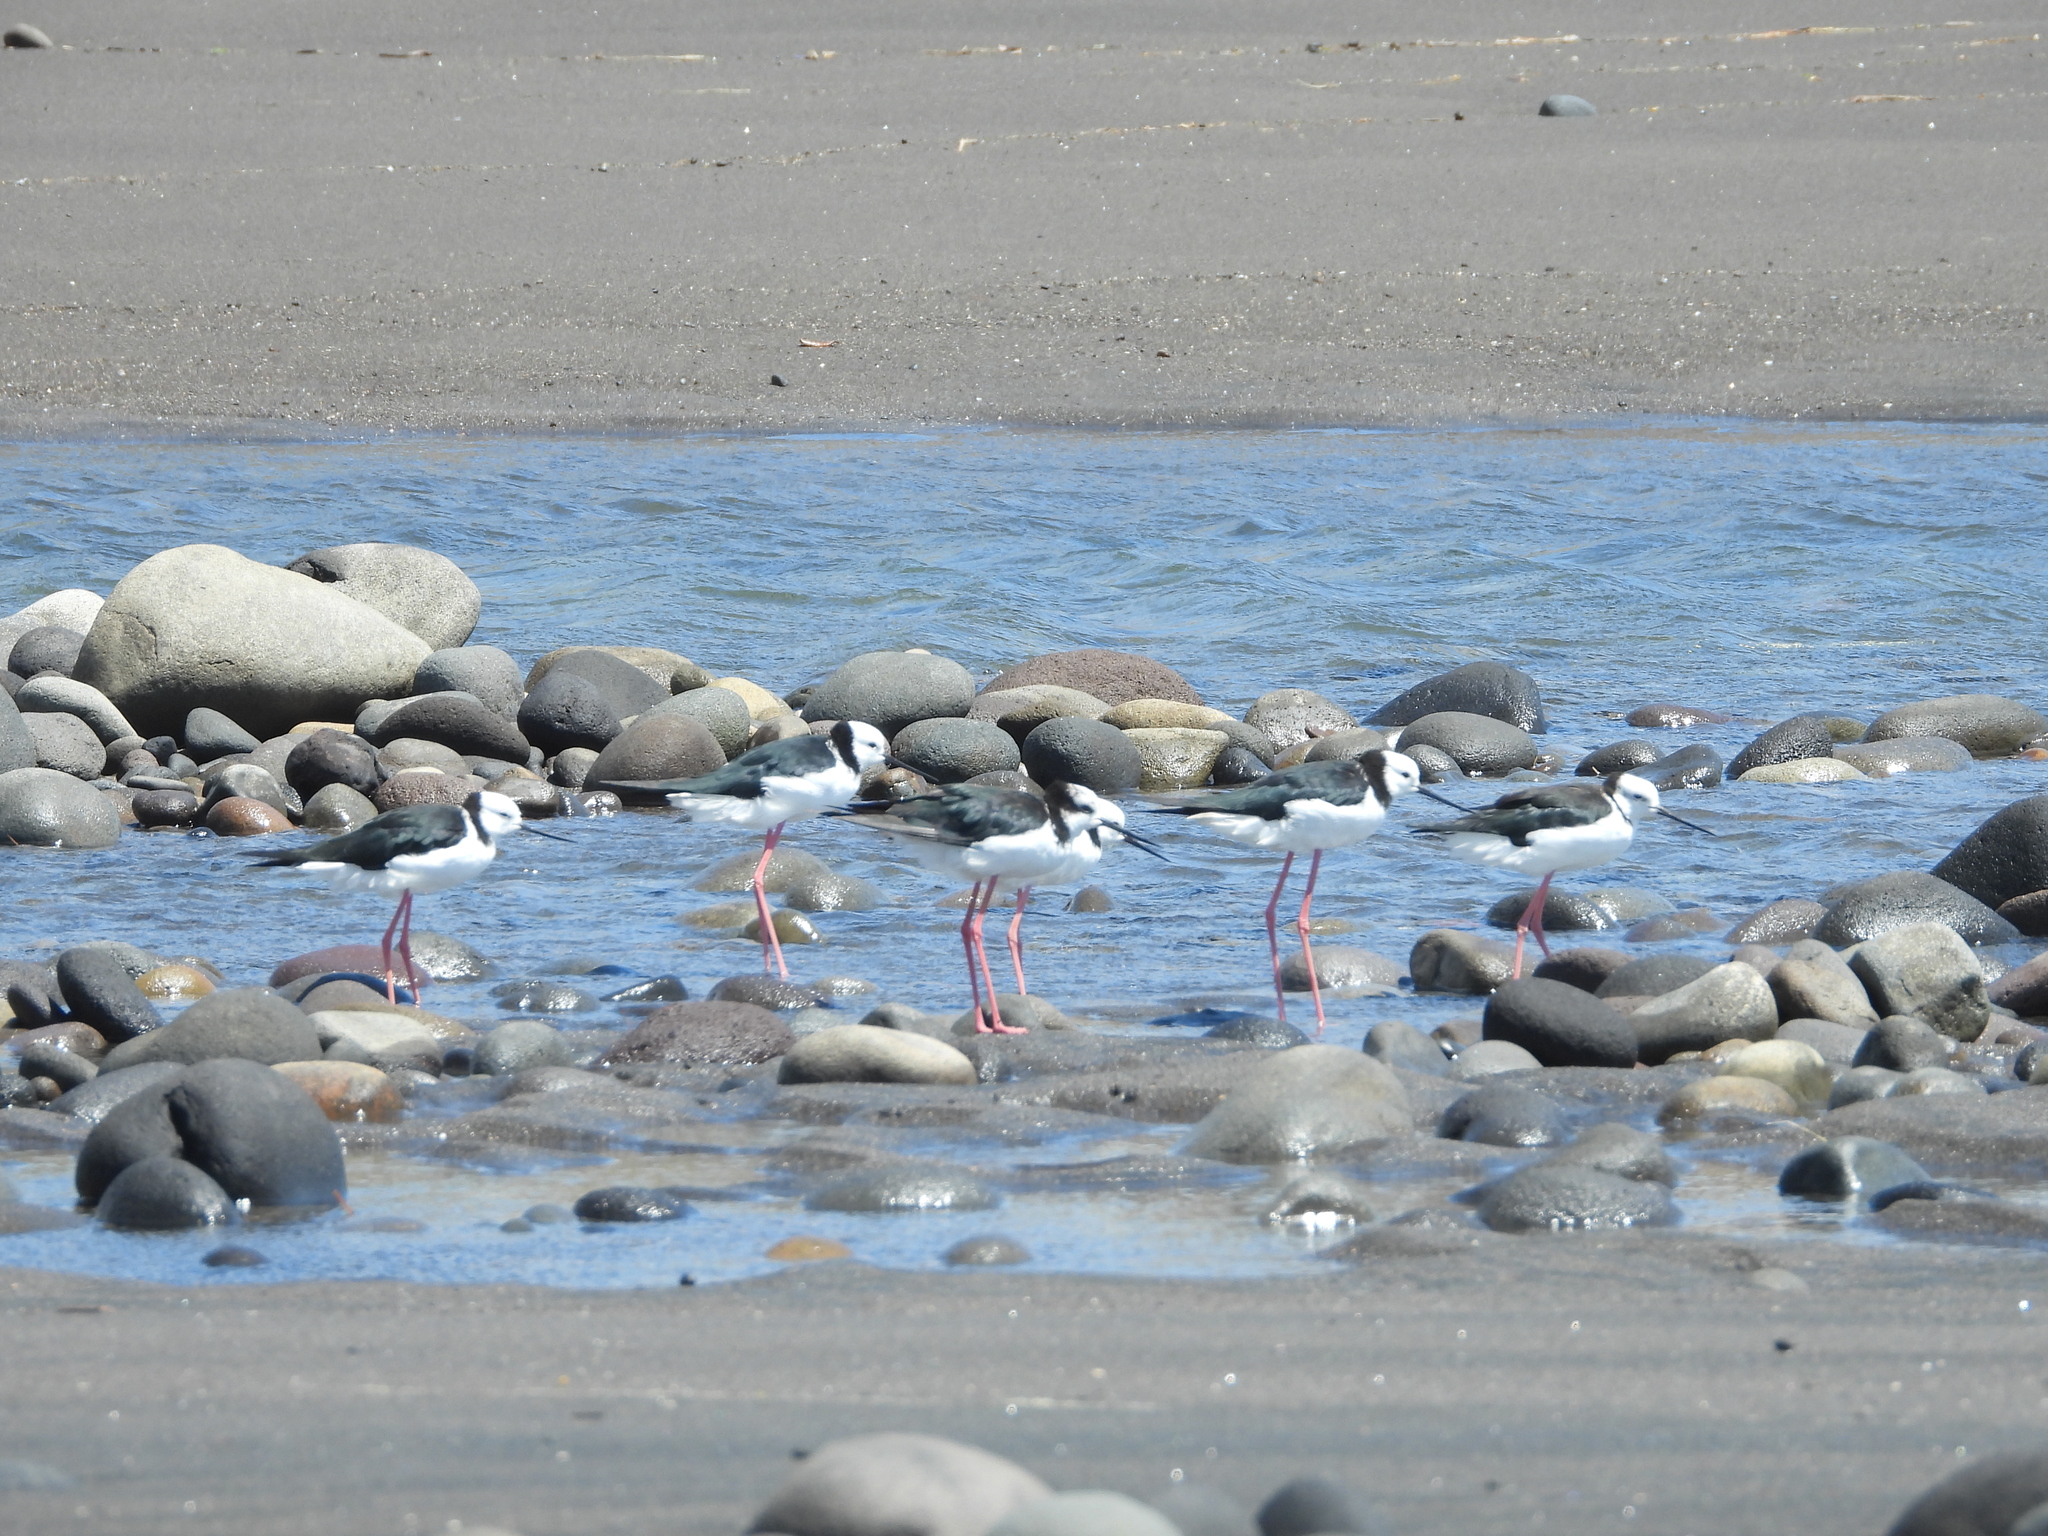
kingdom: Animalia
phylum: Chordata
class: Aves
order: Charadriiformes
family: Recurvirostridae
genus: Himantopus
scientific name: Himantopus leucocephalus
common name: White-headed stilt
